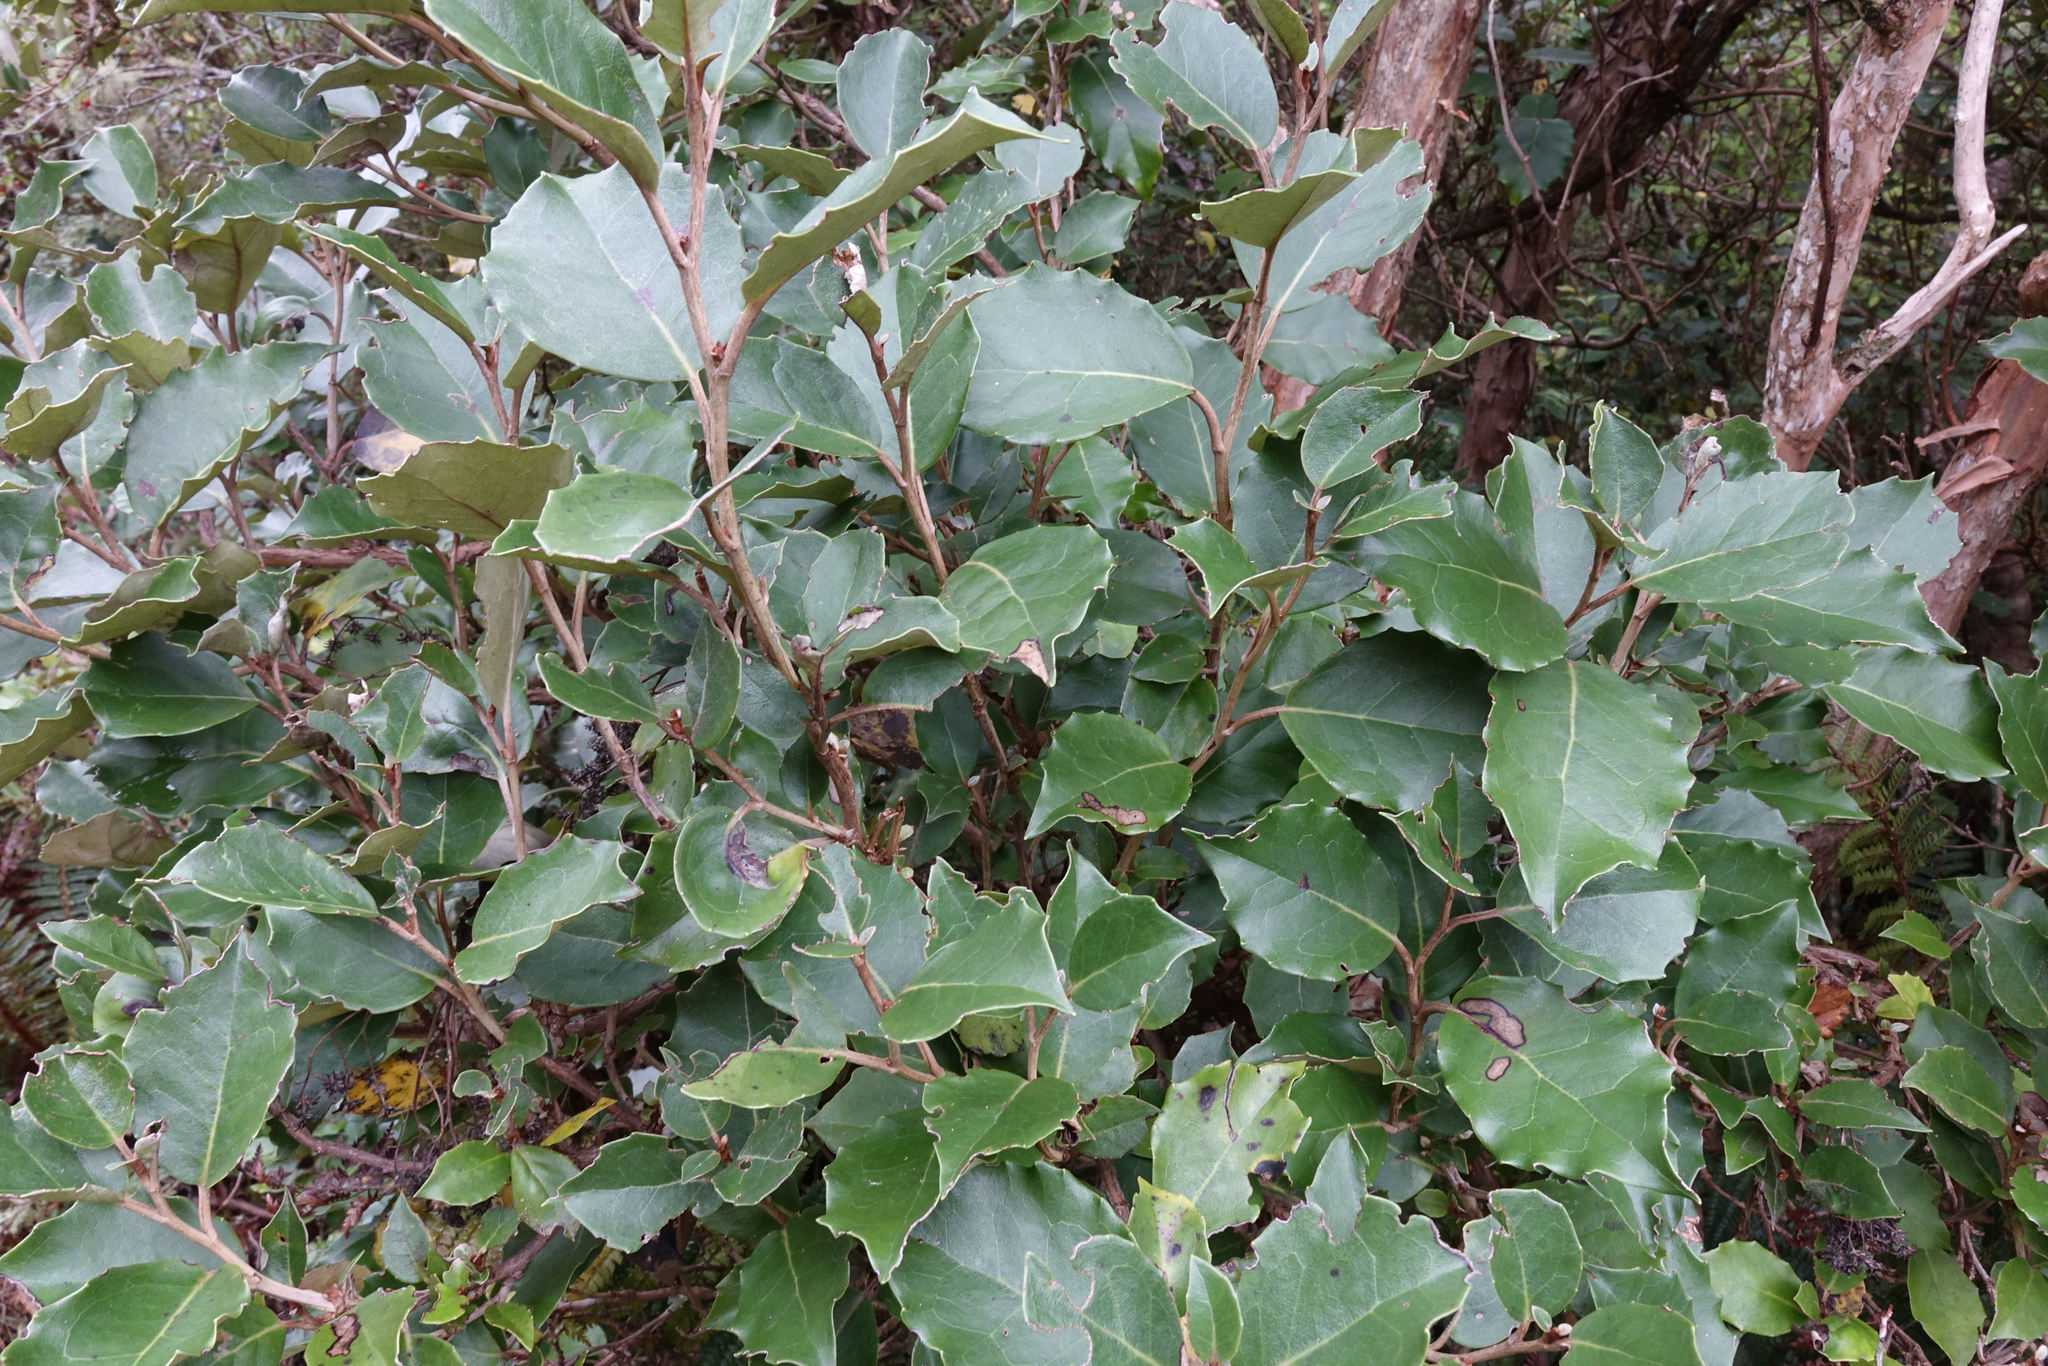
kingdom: Plantae
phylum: Tracheophyta
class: Magnoliopsida
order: Asterales
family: Asteraceae
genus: Olearia
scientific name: Olearia arborescens
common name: Glossy tree daisy
